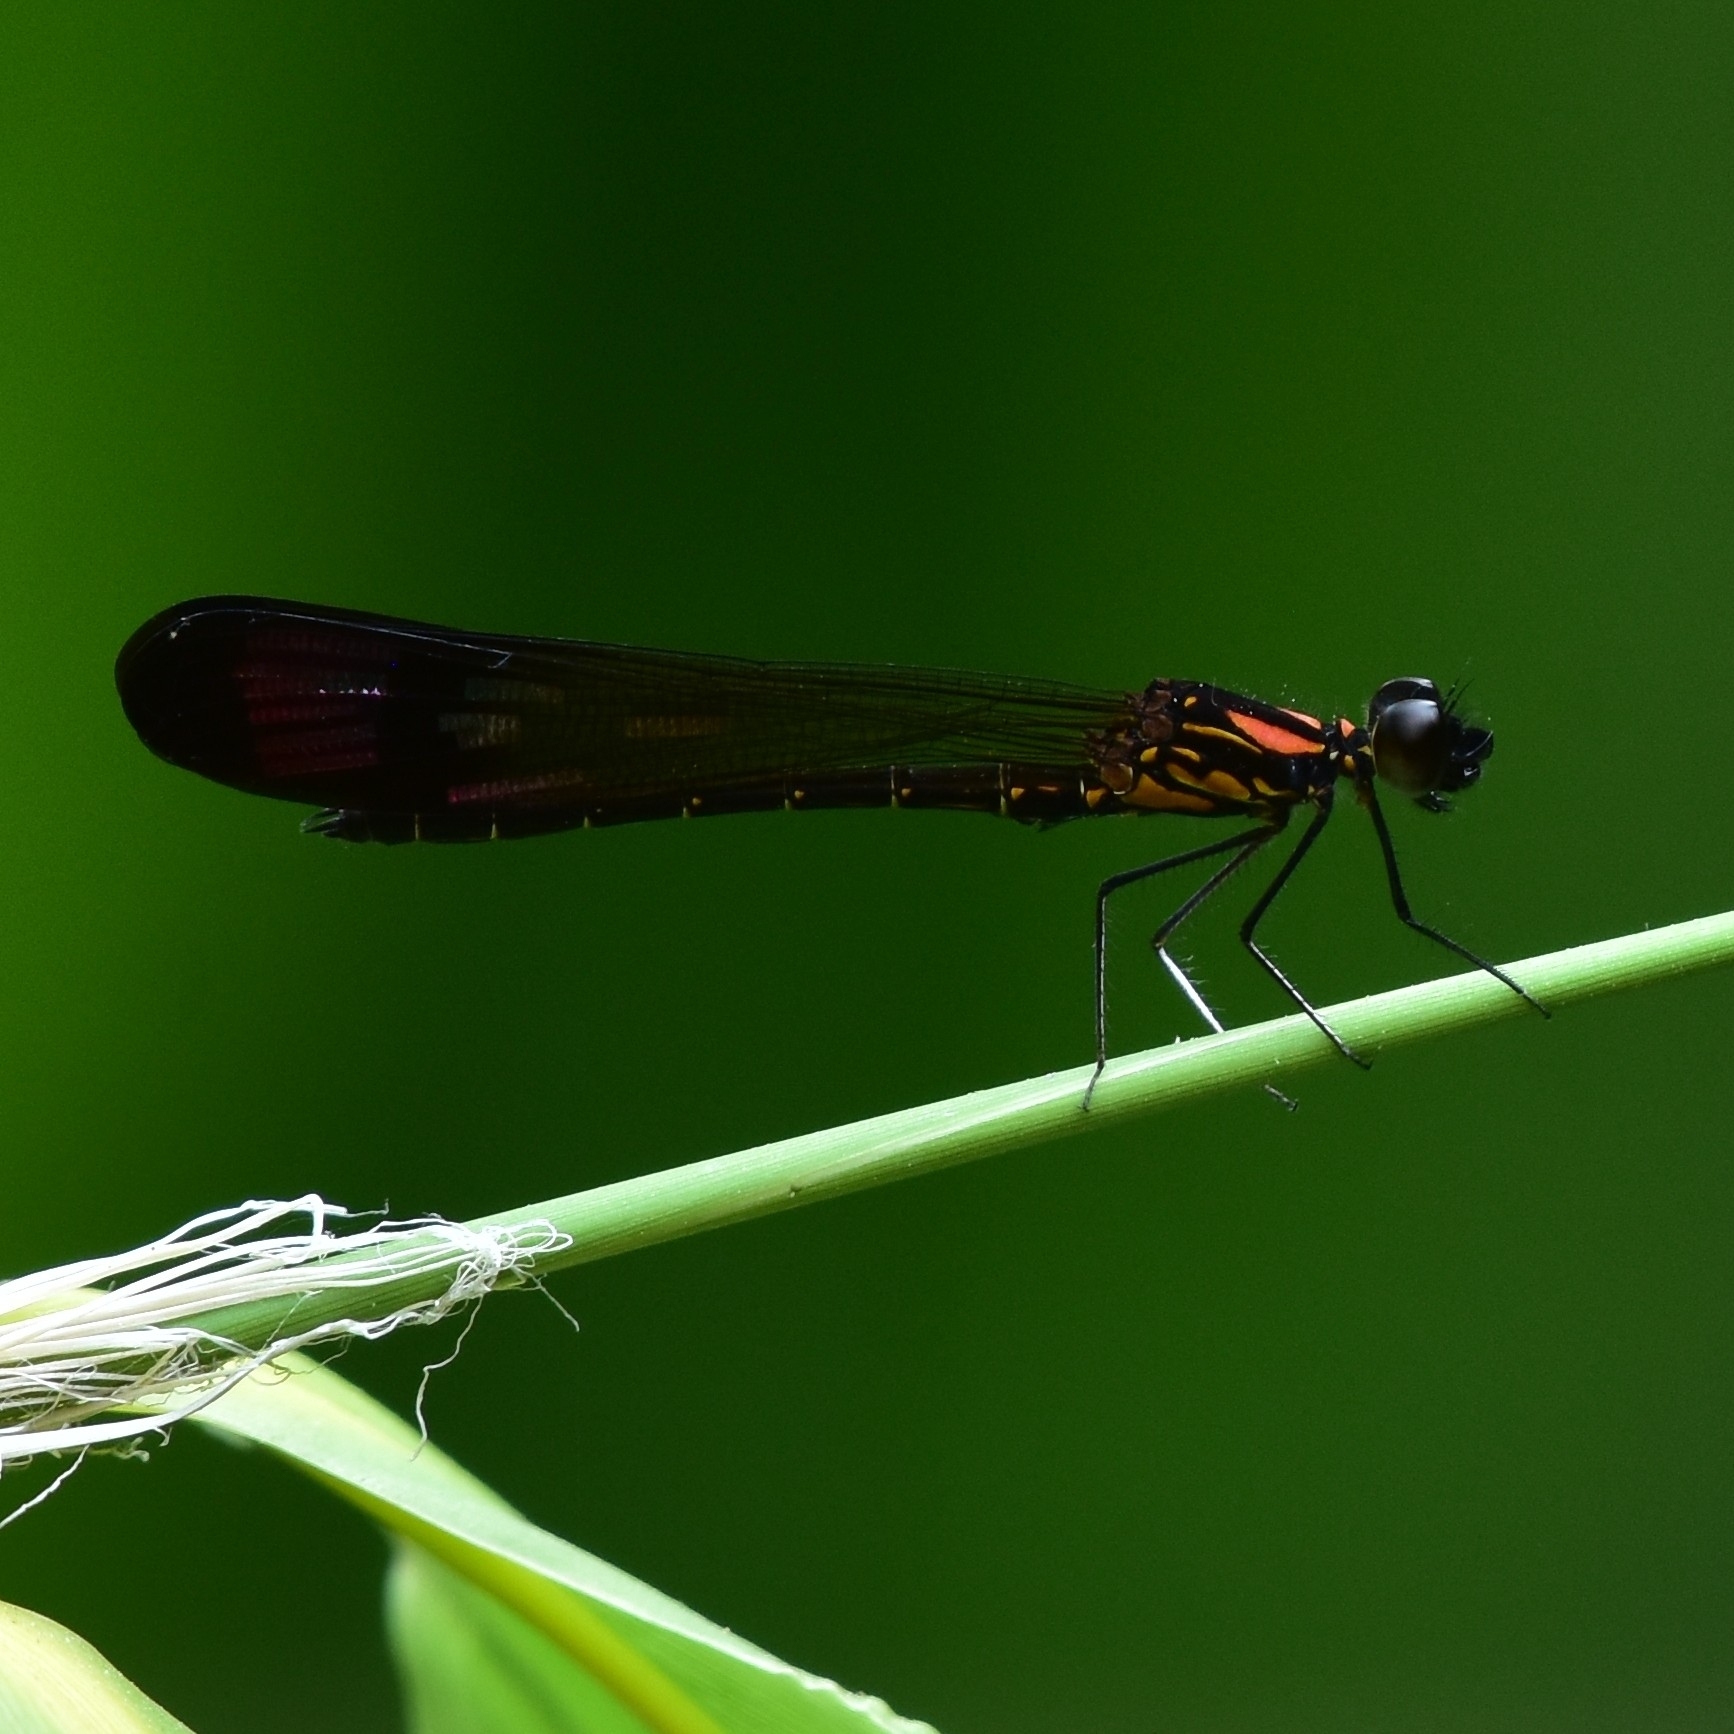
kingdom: Animalia
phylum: Arthropoda
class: Insecta
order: Odonata
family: Chlorocyphidae
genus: Heliocypha
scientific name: Heliocypha bisignata
